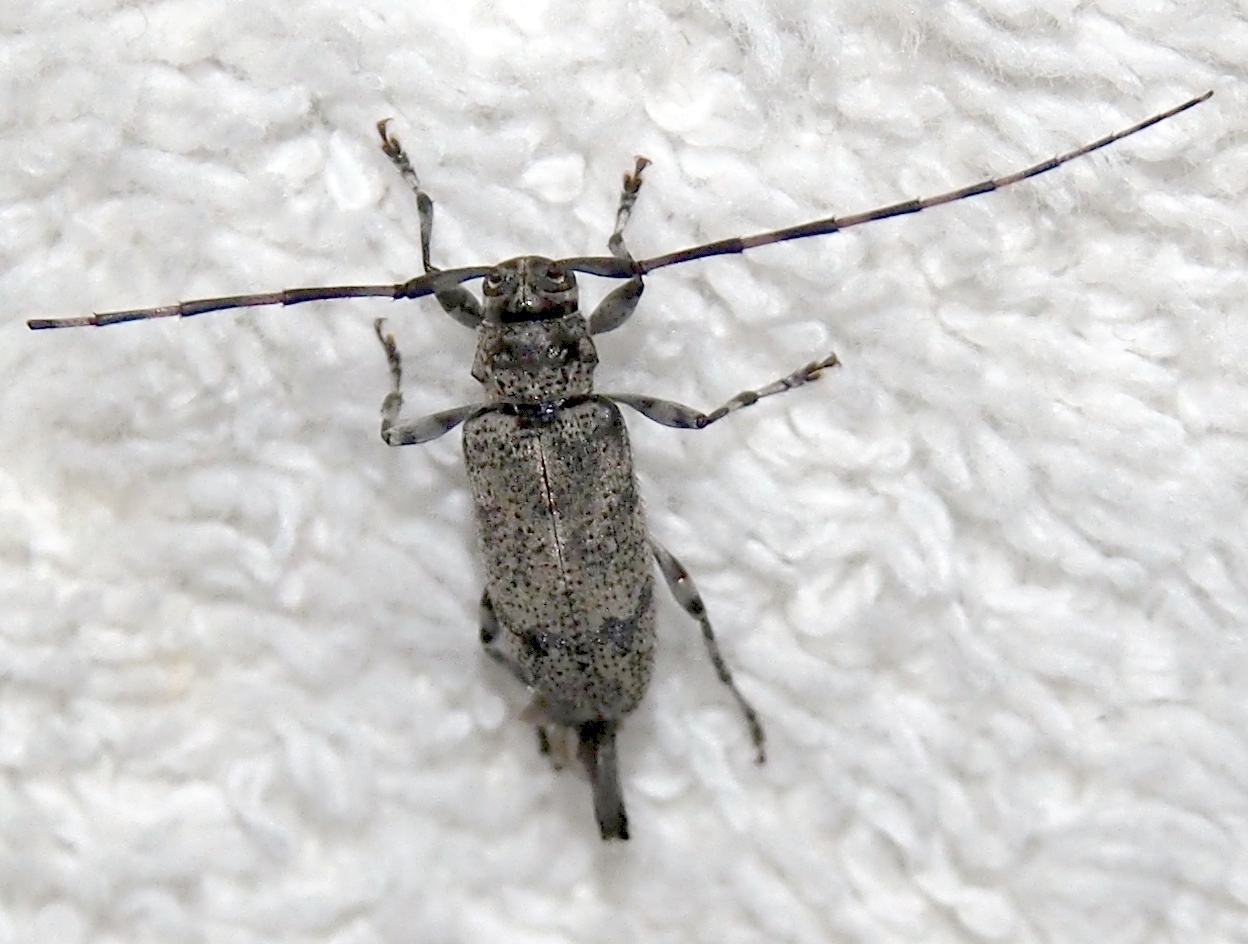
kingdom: Animalia
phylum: Arthropoda
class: Insecta
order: Coleoptera
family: Cerambycidae
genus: Graphisurus
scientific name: Graphisurus despectus
